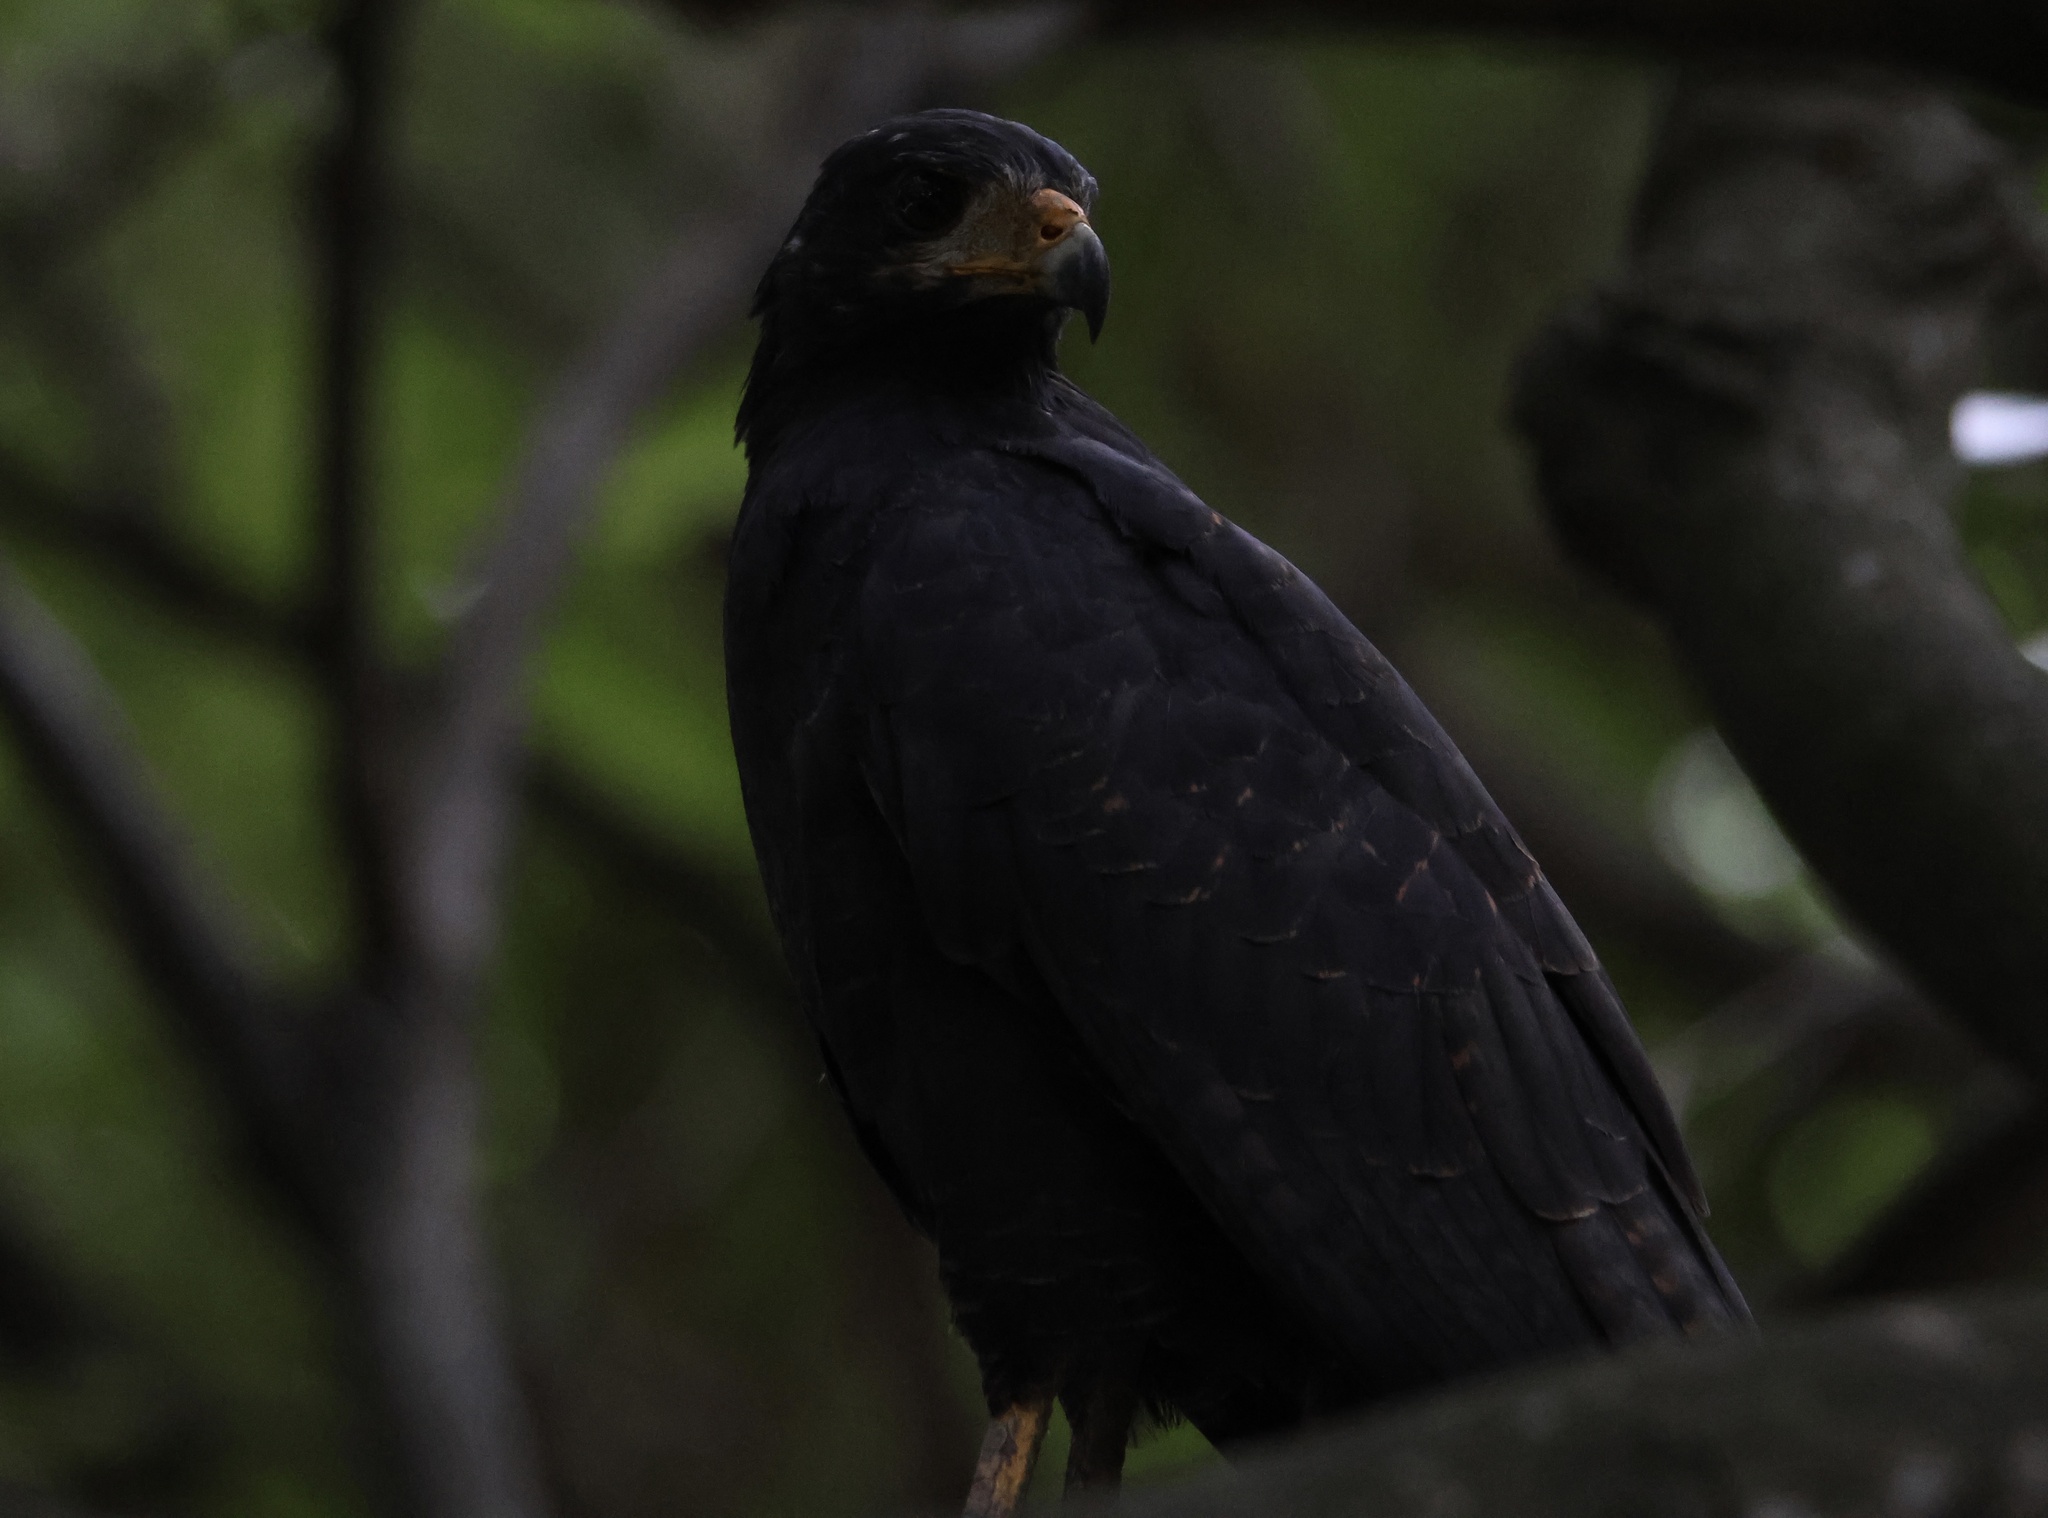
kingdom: Animalia
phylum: Chordata
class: Aves
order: Accipitriformes
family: Accipitridae
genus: Buteogallus
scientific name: Buteogallus anthracinus
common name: Common black hawk
